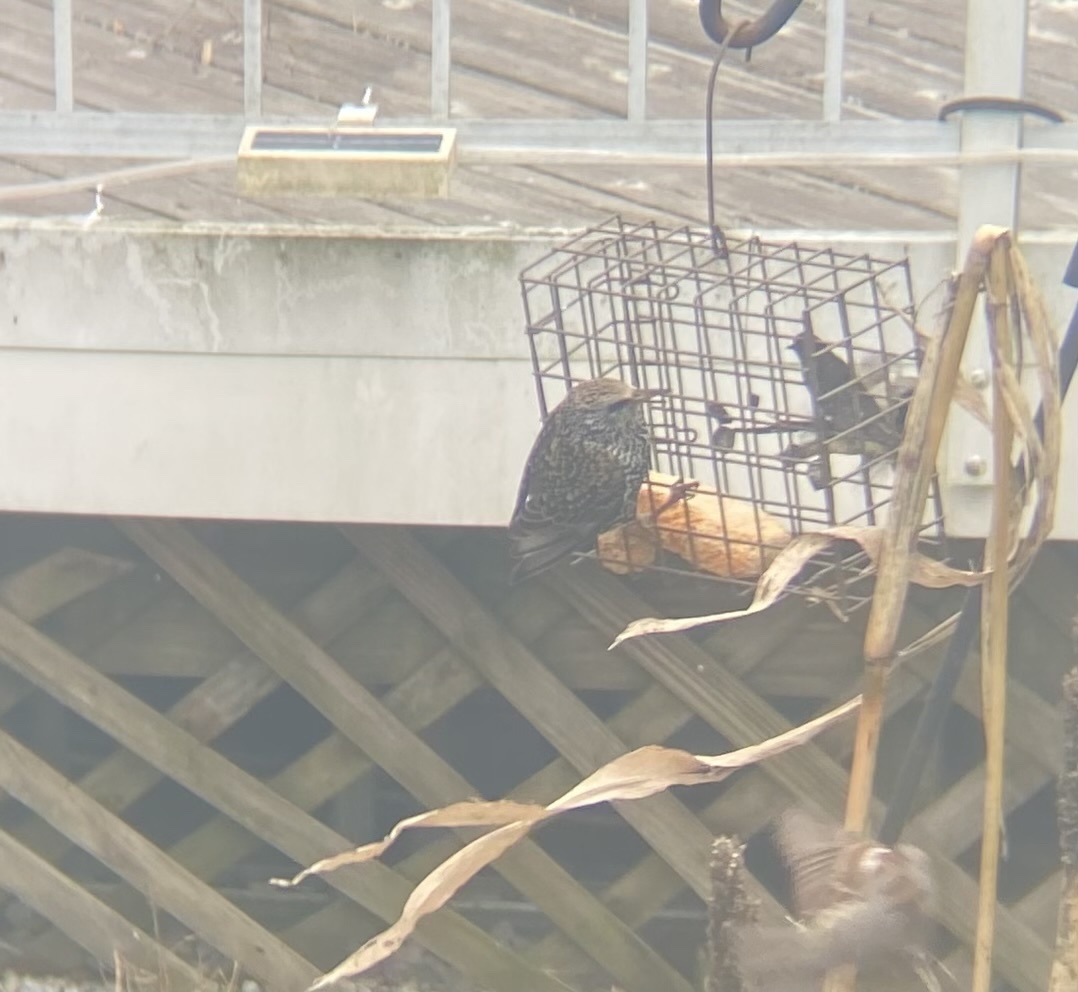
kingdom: Animalia
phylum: Chordata
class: Aves
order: Passeriformes
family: Sturnidae
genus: Sturnus
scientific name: Sturnus vulgaris
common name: Common starling
